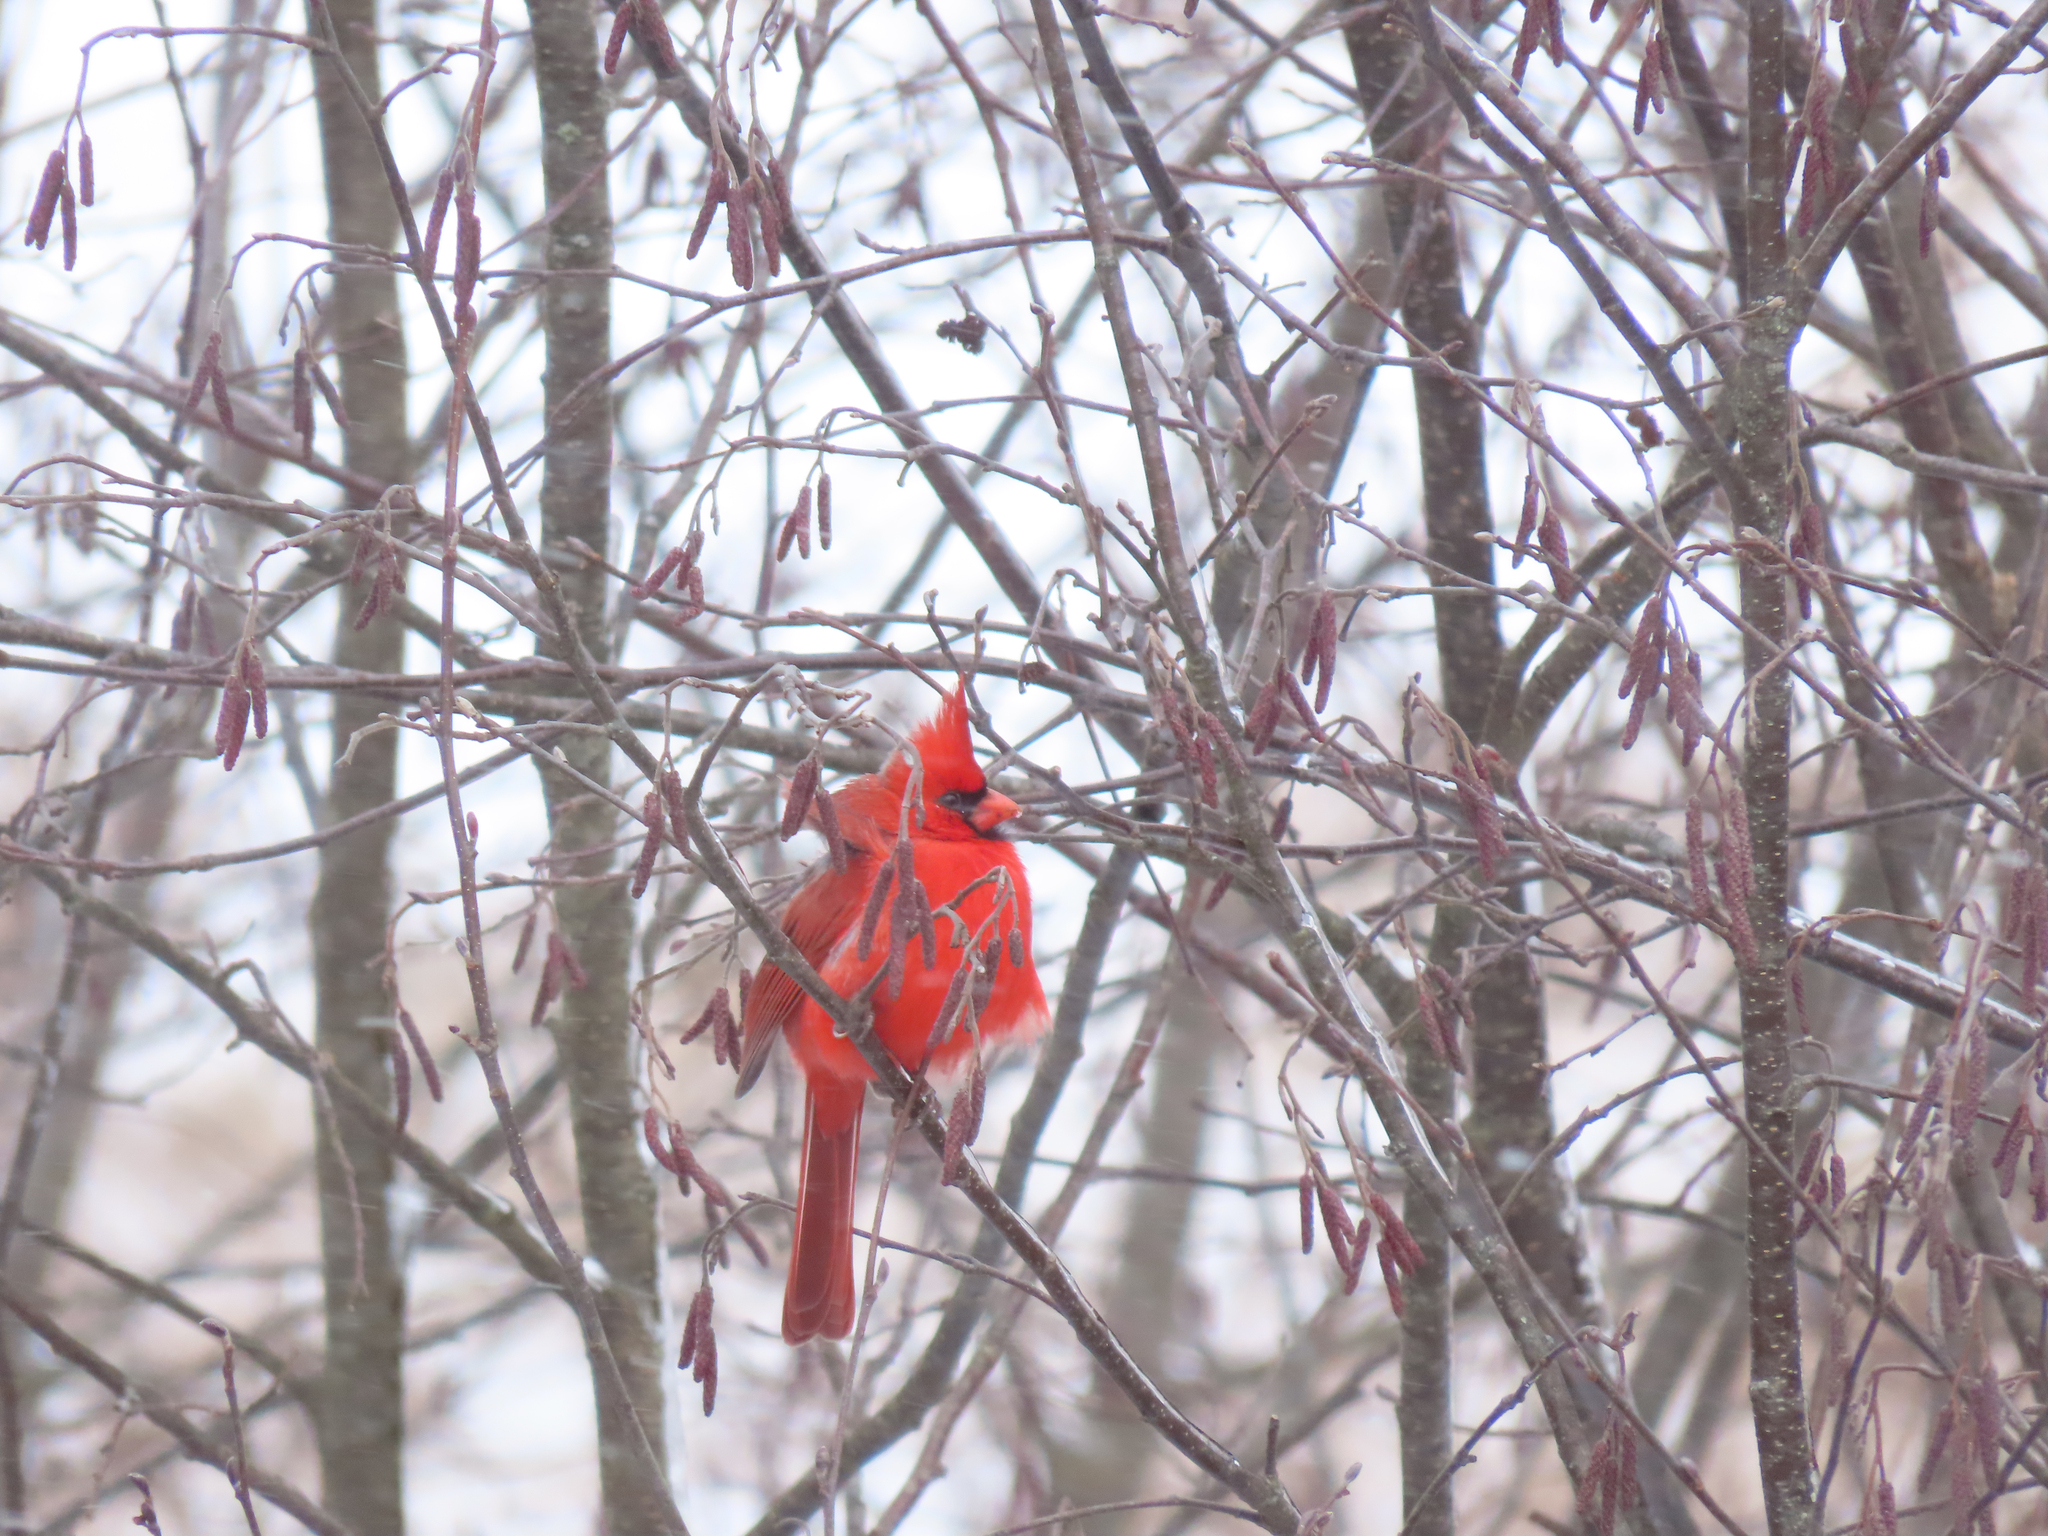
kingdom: Animalia
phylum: Chordata
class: Aves
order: Passeriformes
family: Cardinalidae
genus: Cardinalis
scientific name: Cardinalis cardinalis
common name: Northern cardinal
